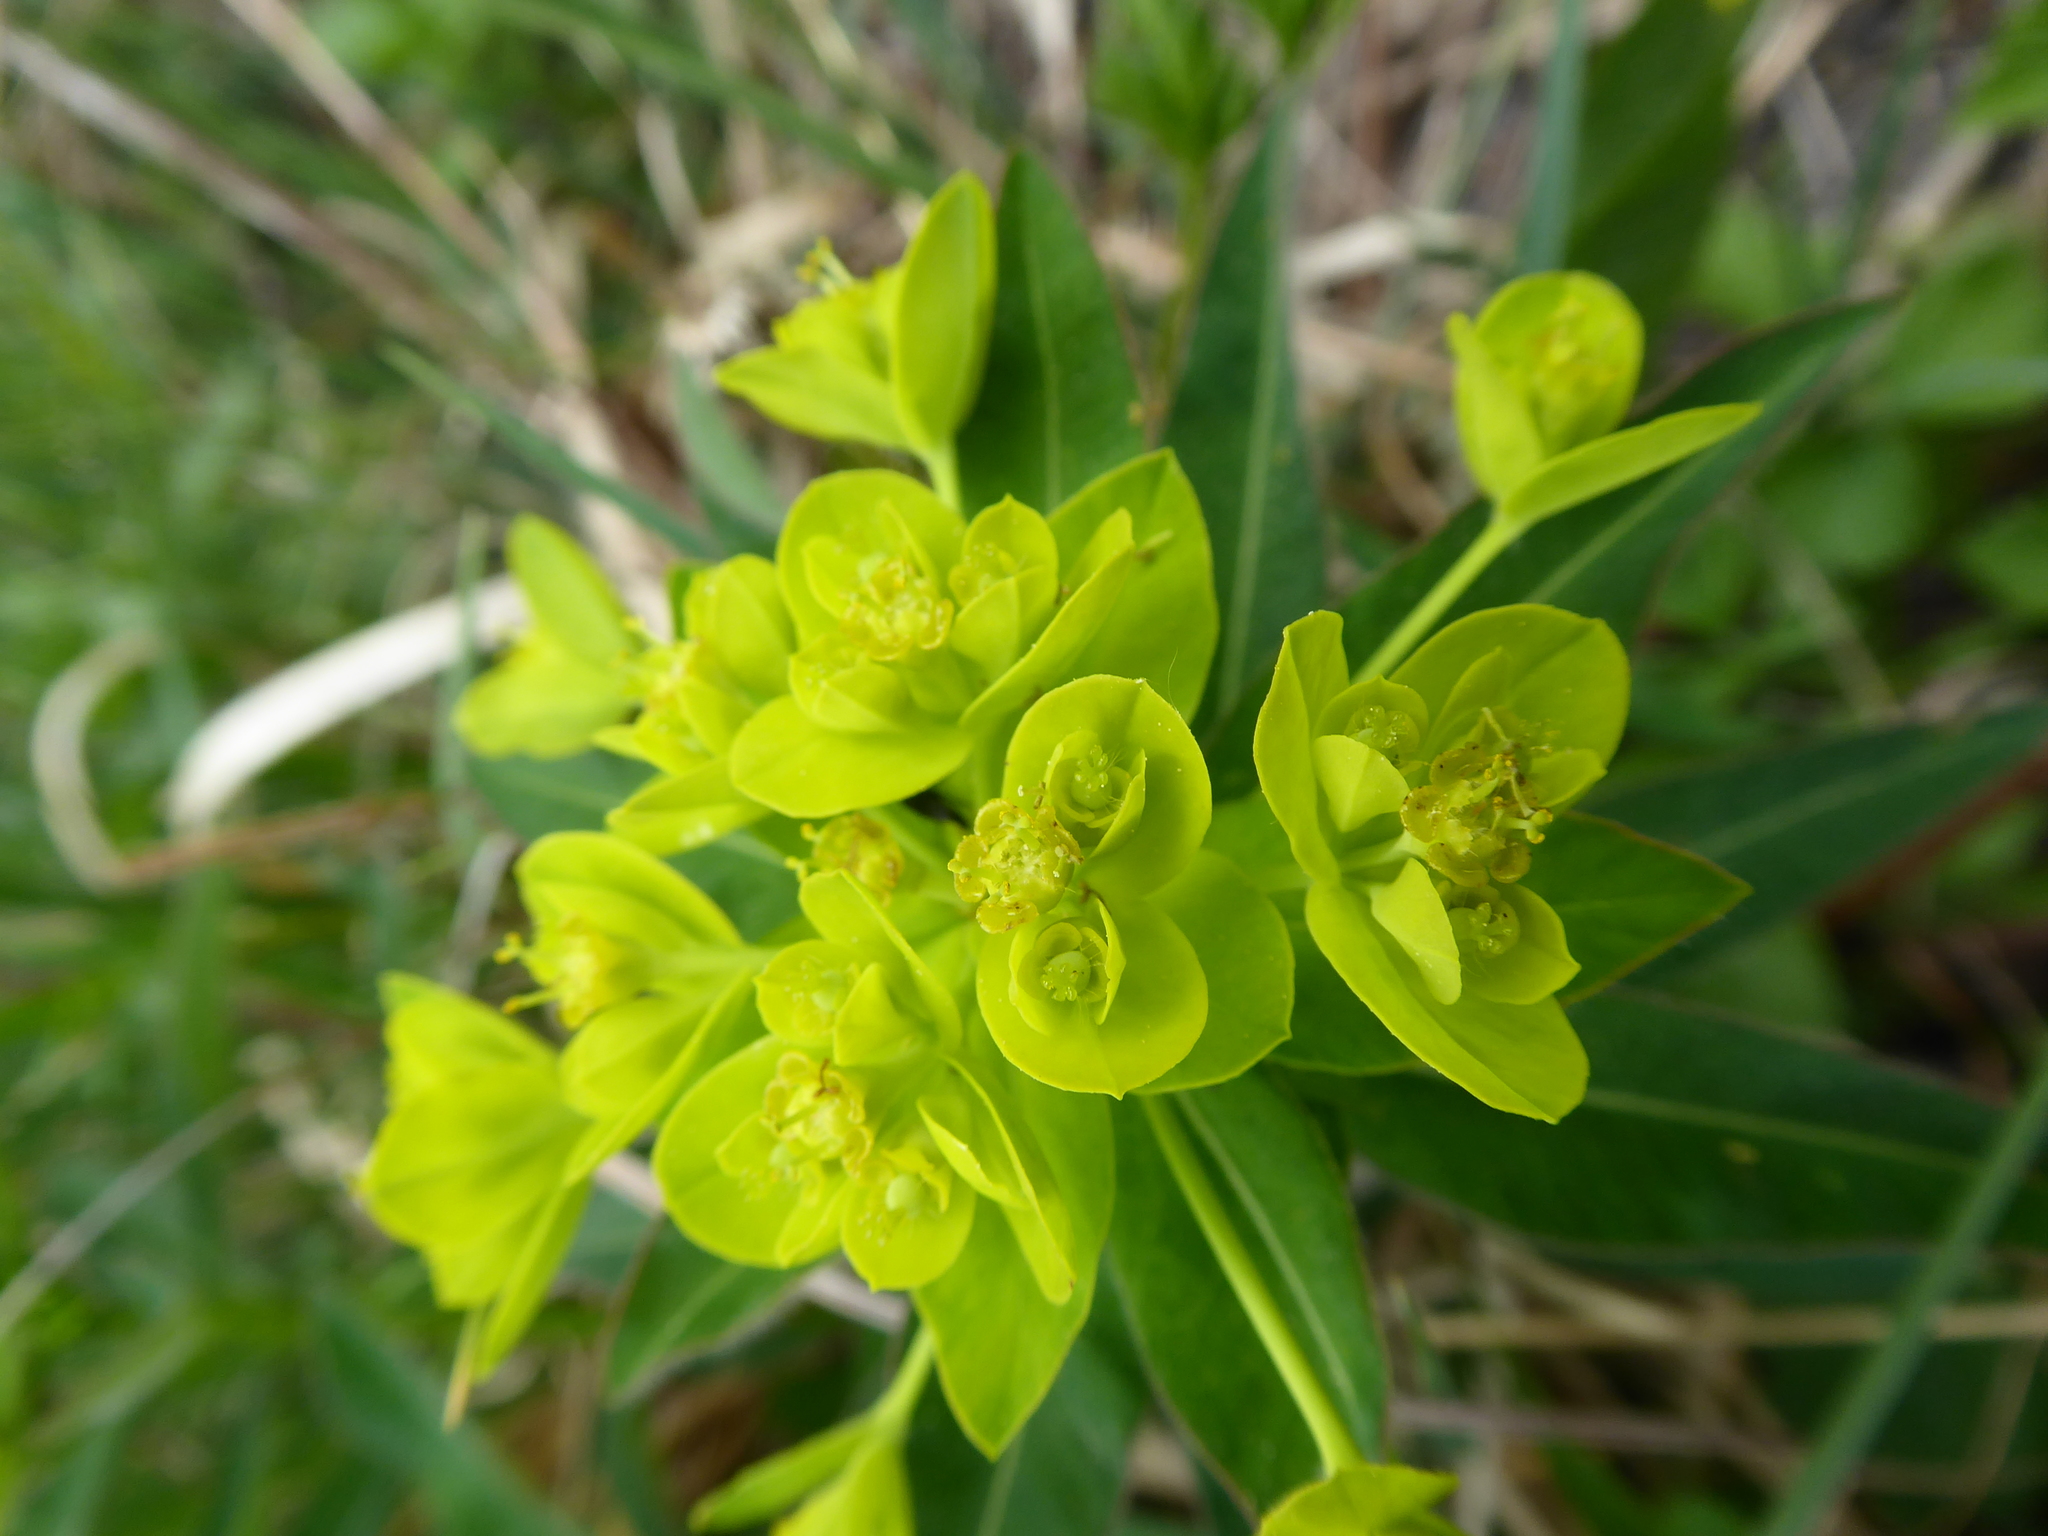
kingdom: Plantae
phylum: Tracheophyta
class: Magnoliopsida
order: Malpighiales
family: Euphorbiaceae
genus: Euphorbia
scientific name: Euphorbia illirica
